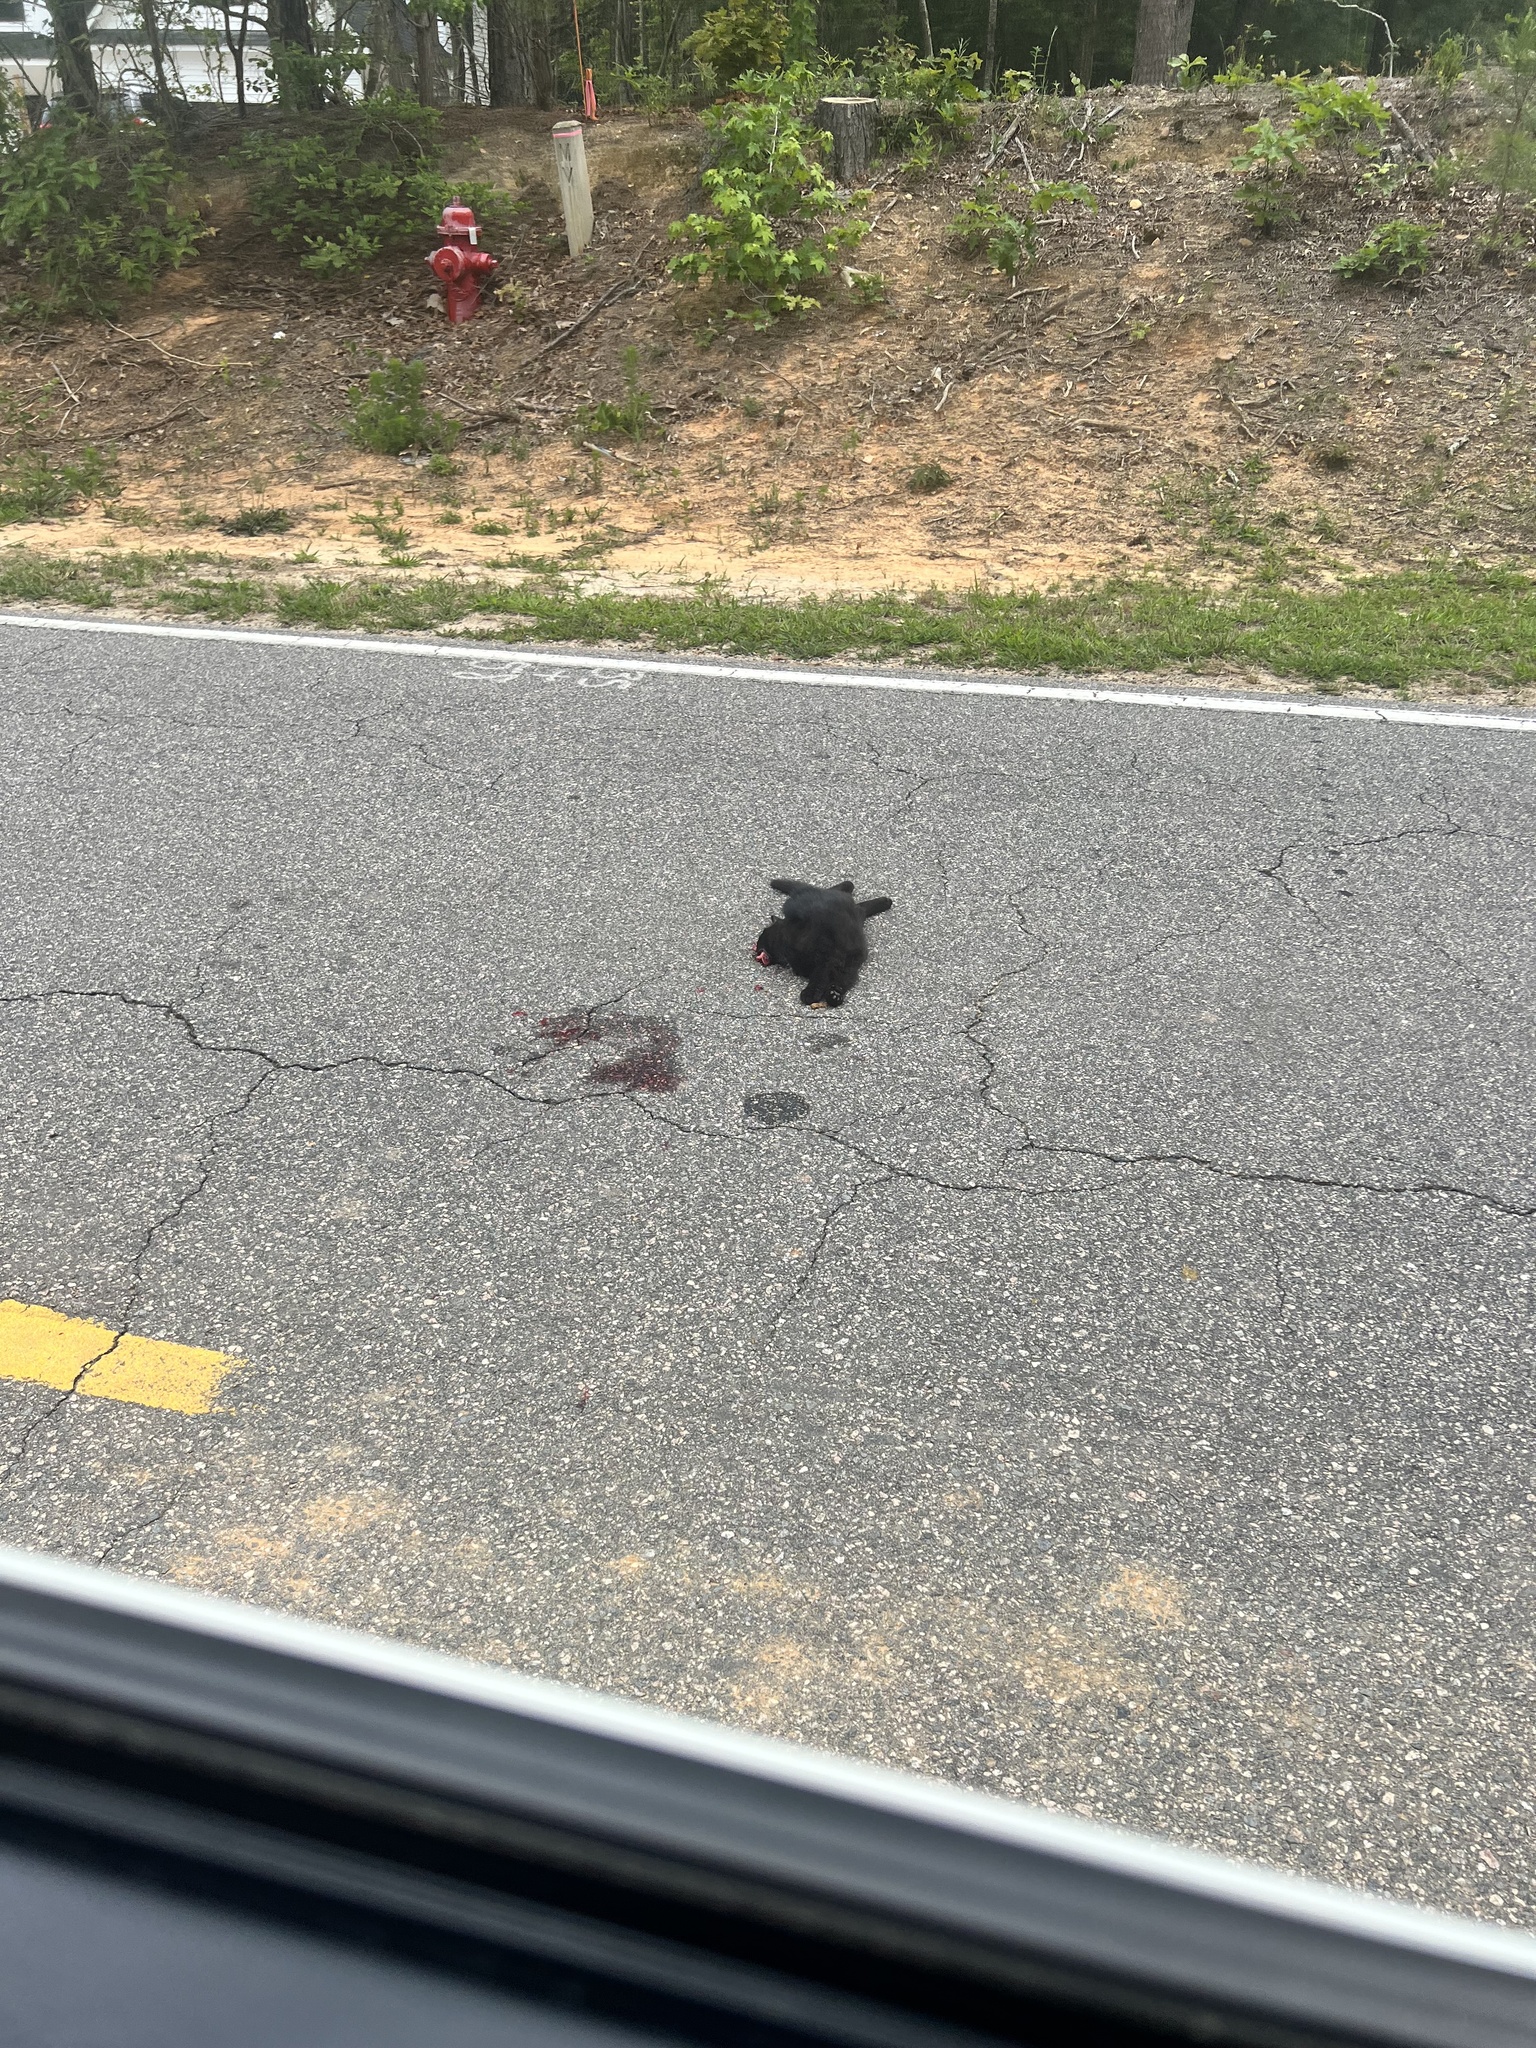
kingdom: Animalia
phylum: Chordata
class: Mammalia
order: Carnivora
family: Felidae
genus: Felis
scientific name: Felis catus
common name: Domestic cat
